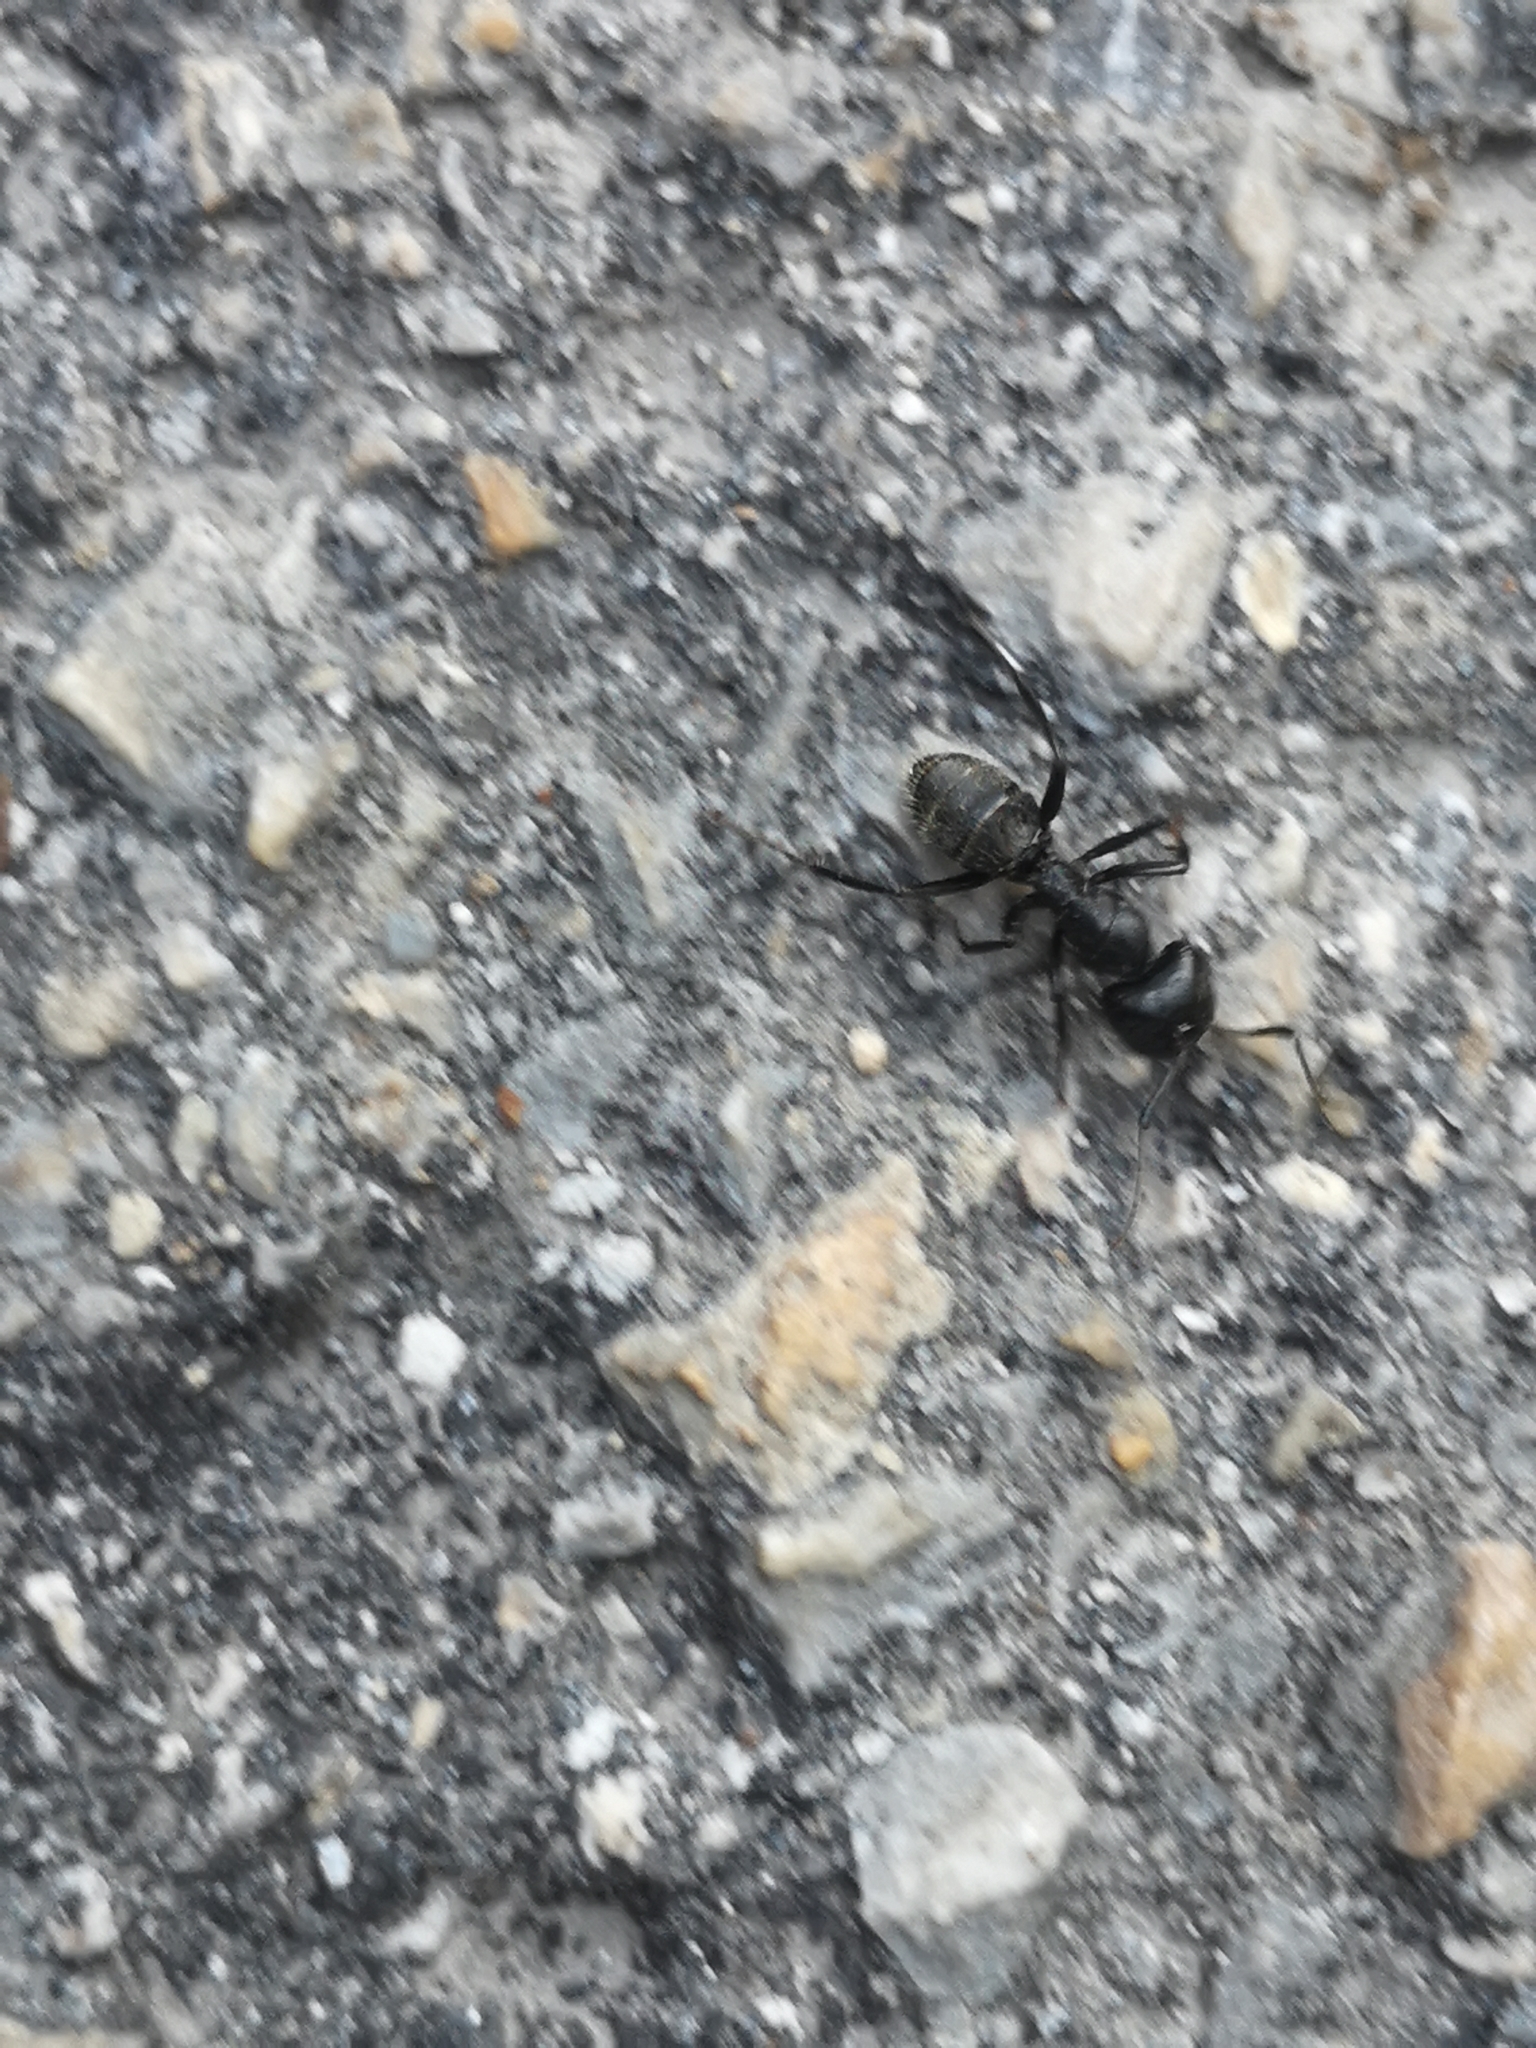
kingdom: Animalia
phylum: Arthropoda
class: Insecta
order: Hymenoptera
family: Formicidae
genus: Camponotus
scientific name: Camponotus vagus
